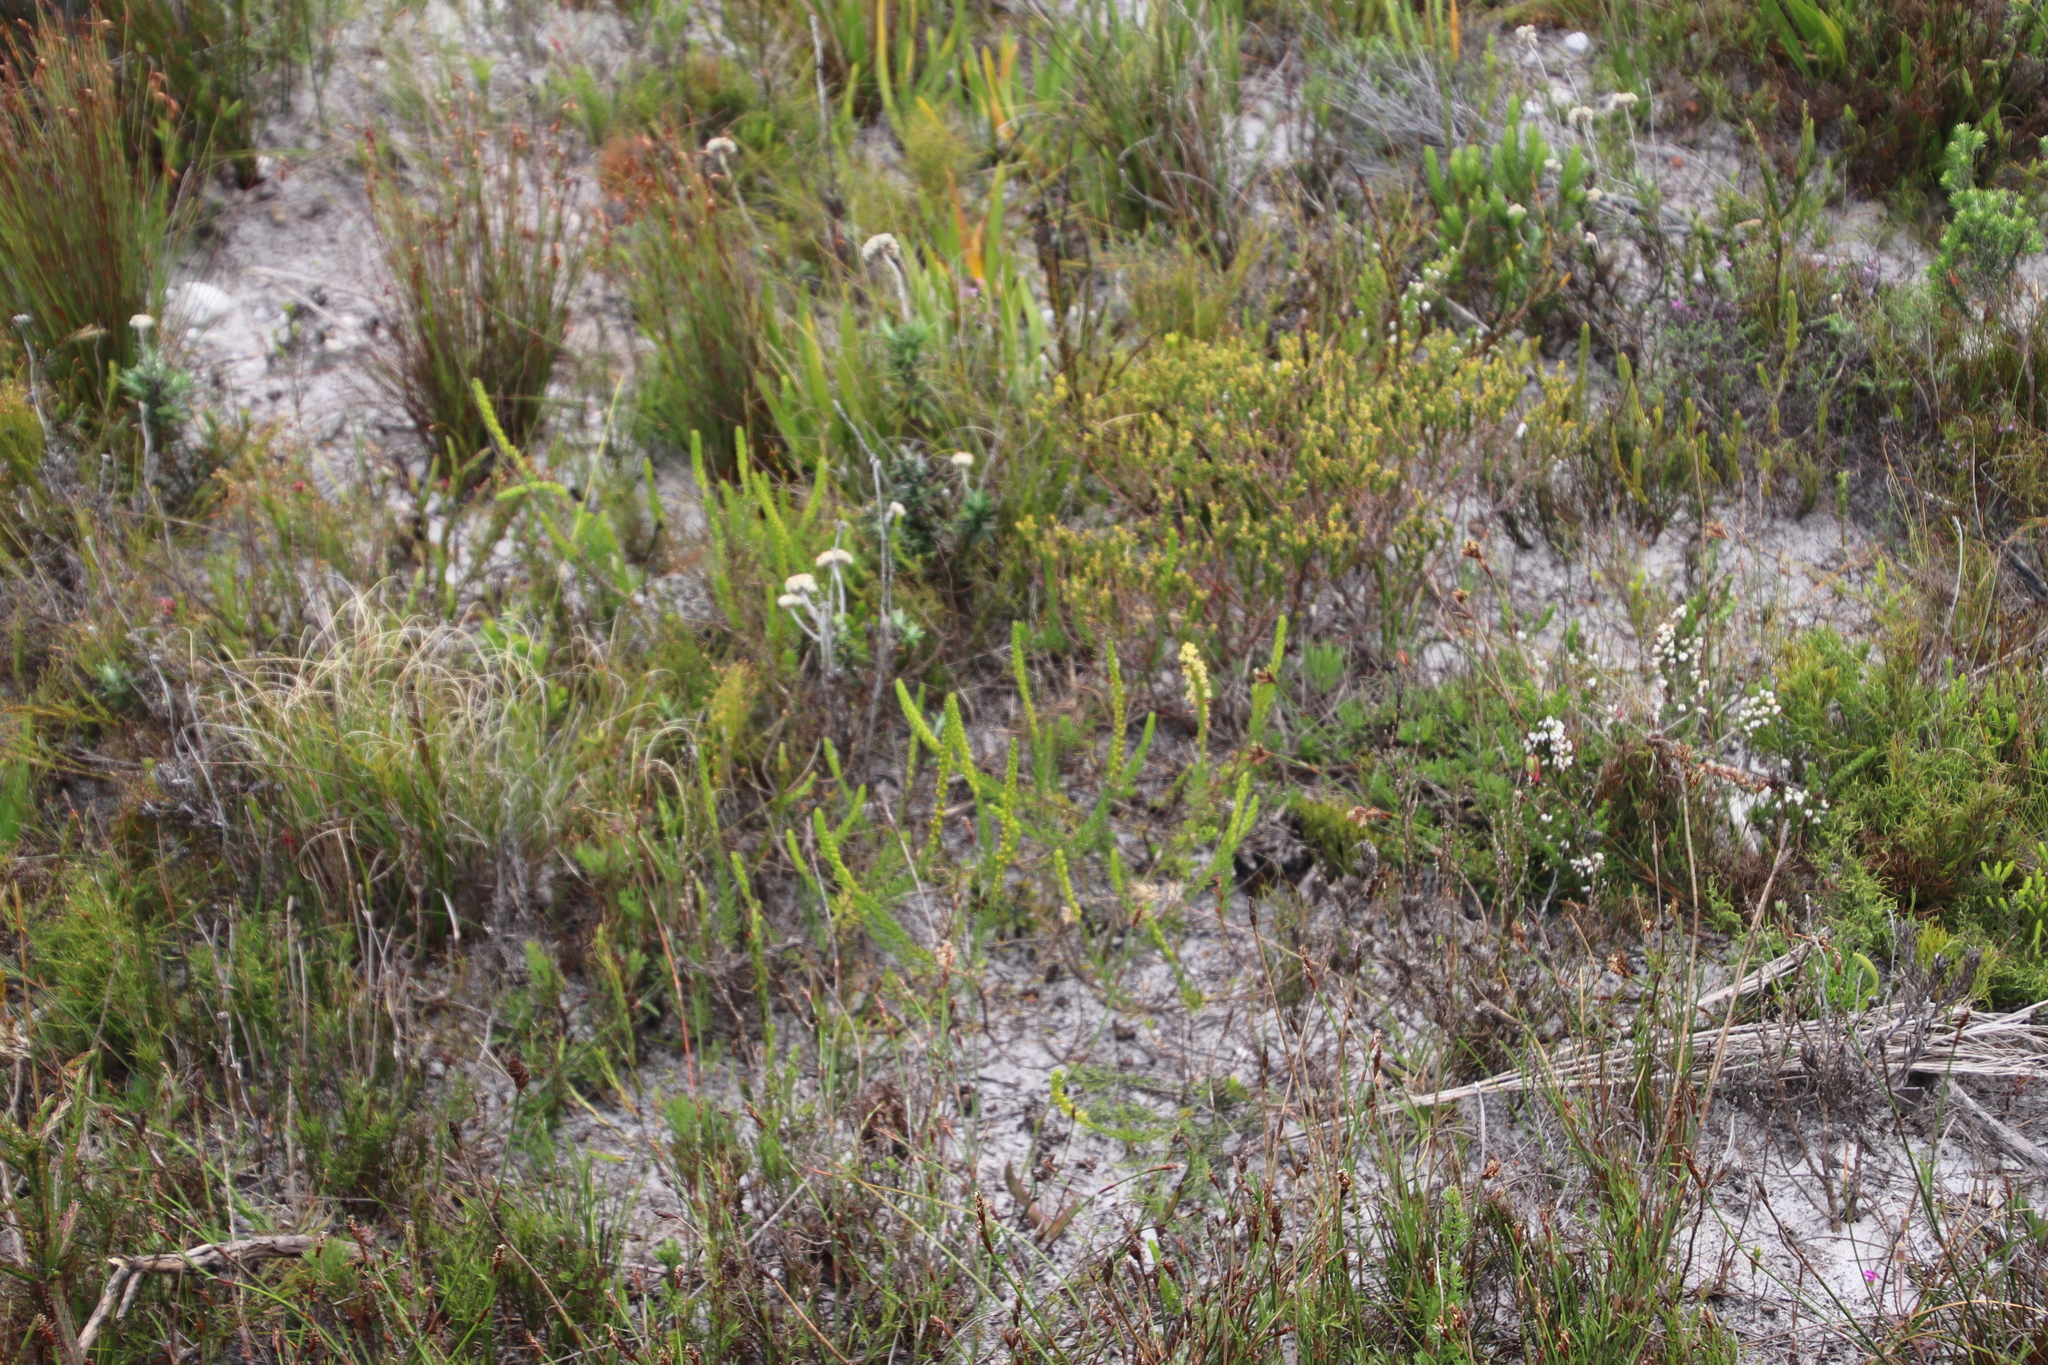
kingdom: Plantae
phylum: Tracheophyta
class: Magnoliopsida
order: Lamiales
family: Scrophulariaceae
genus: Microdon
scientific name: Microdon dubius
